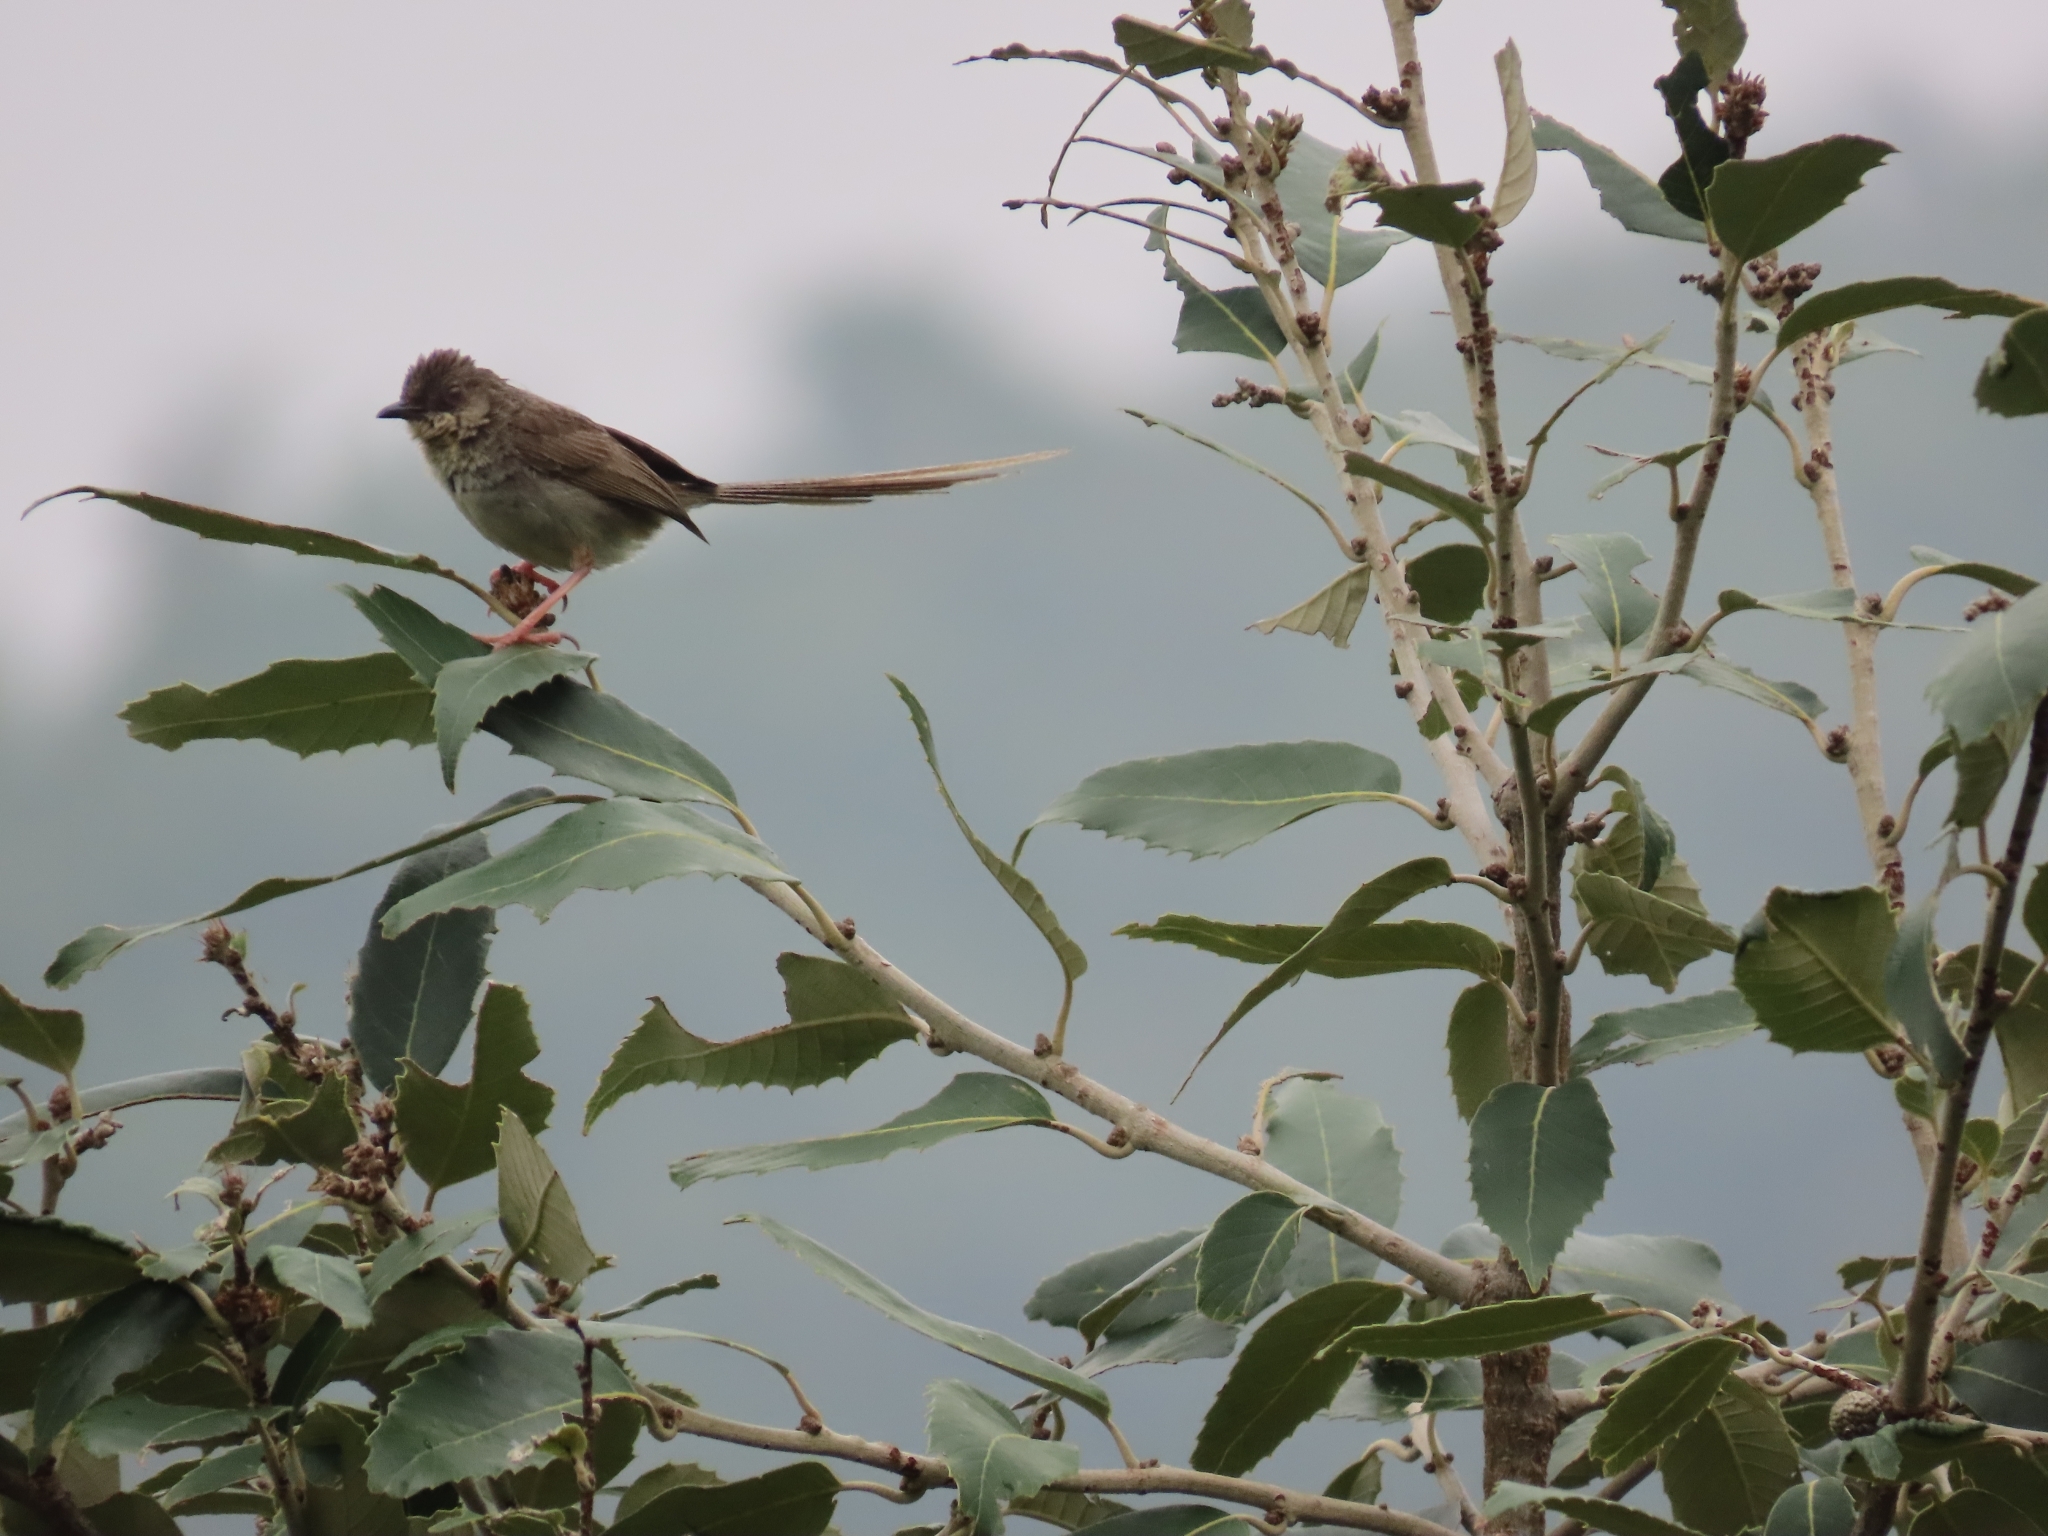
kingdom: Animalia
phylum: Chordata
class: Aves
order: Passeriformes
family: Cisticolidae
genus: Prinia
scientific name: Prinia crinigera
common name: Striated prinia
